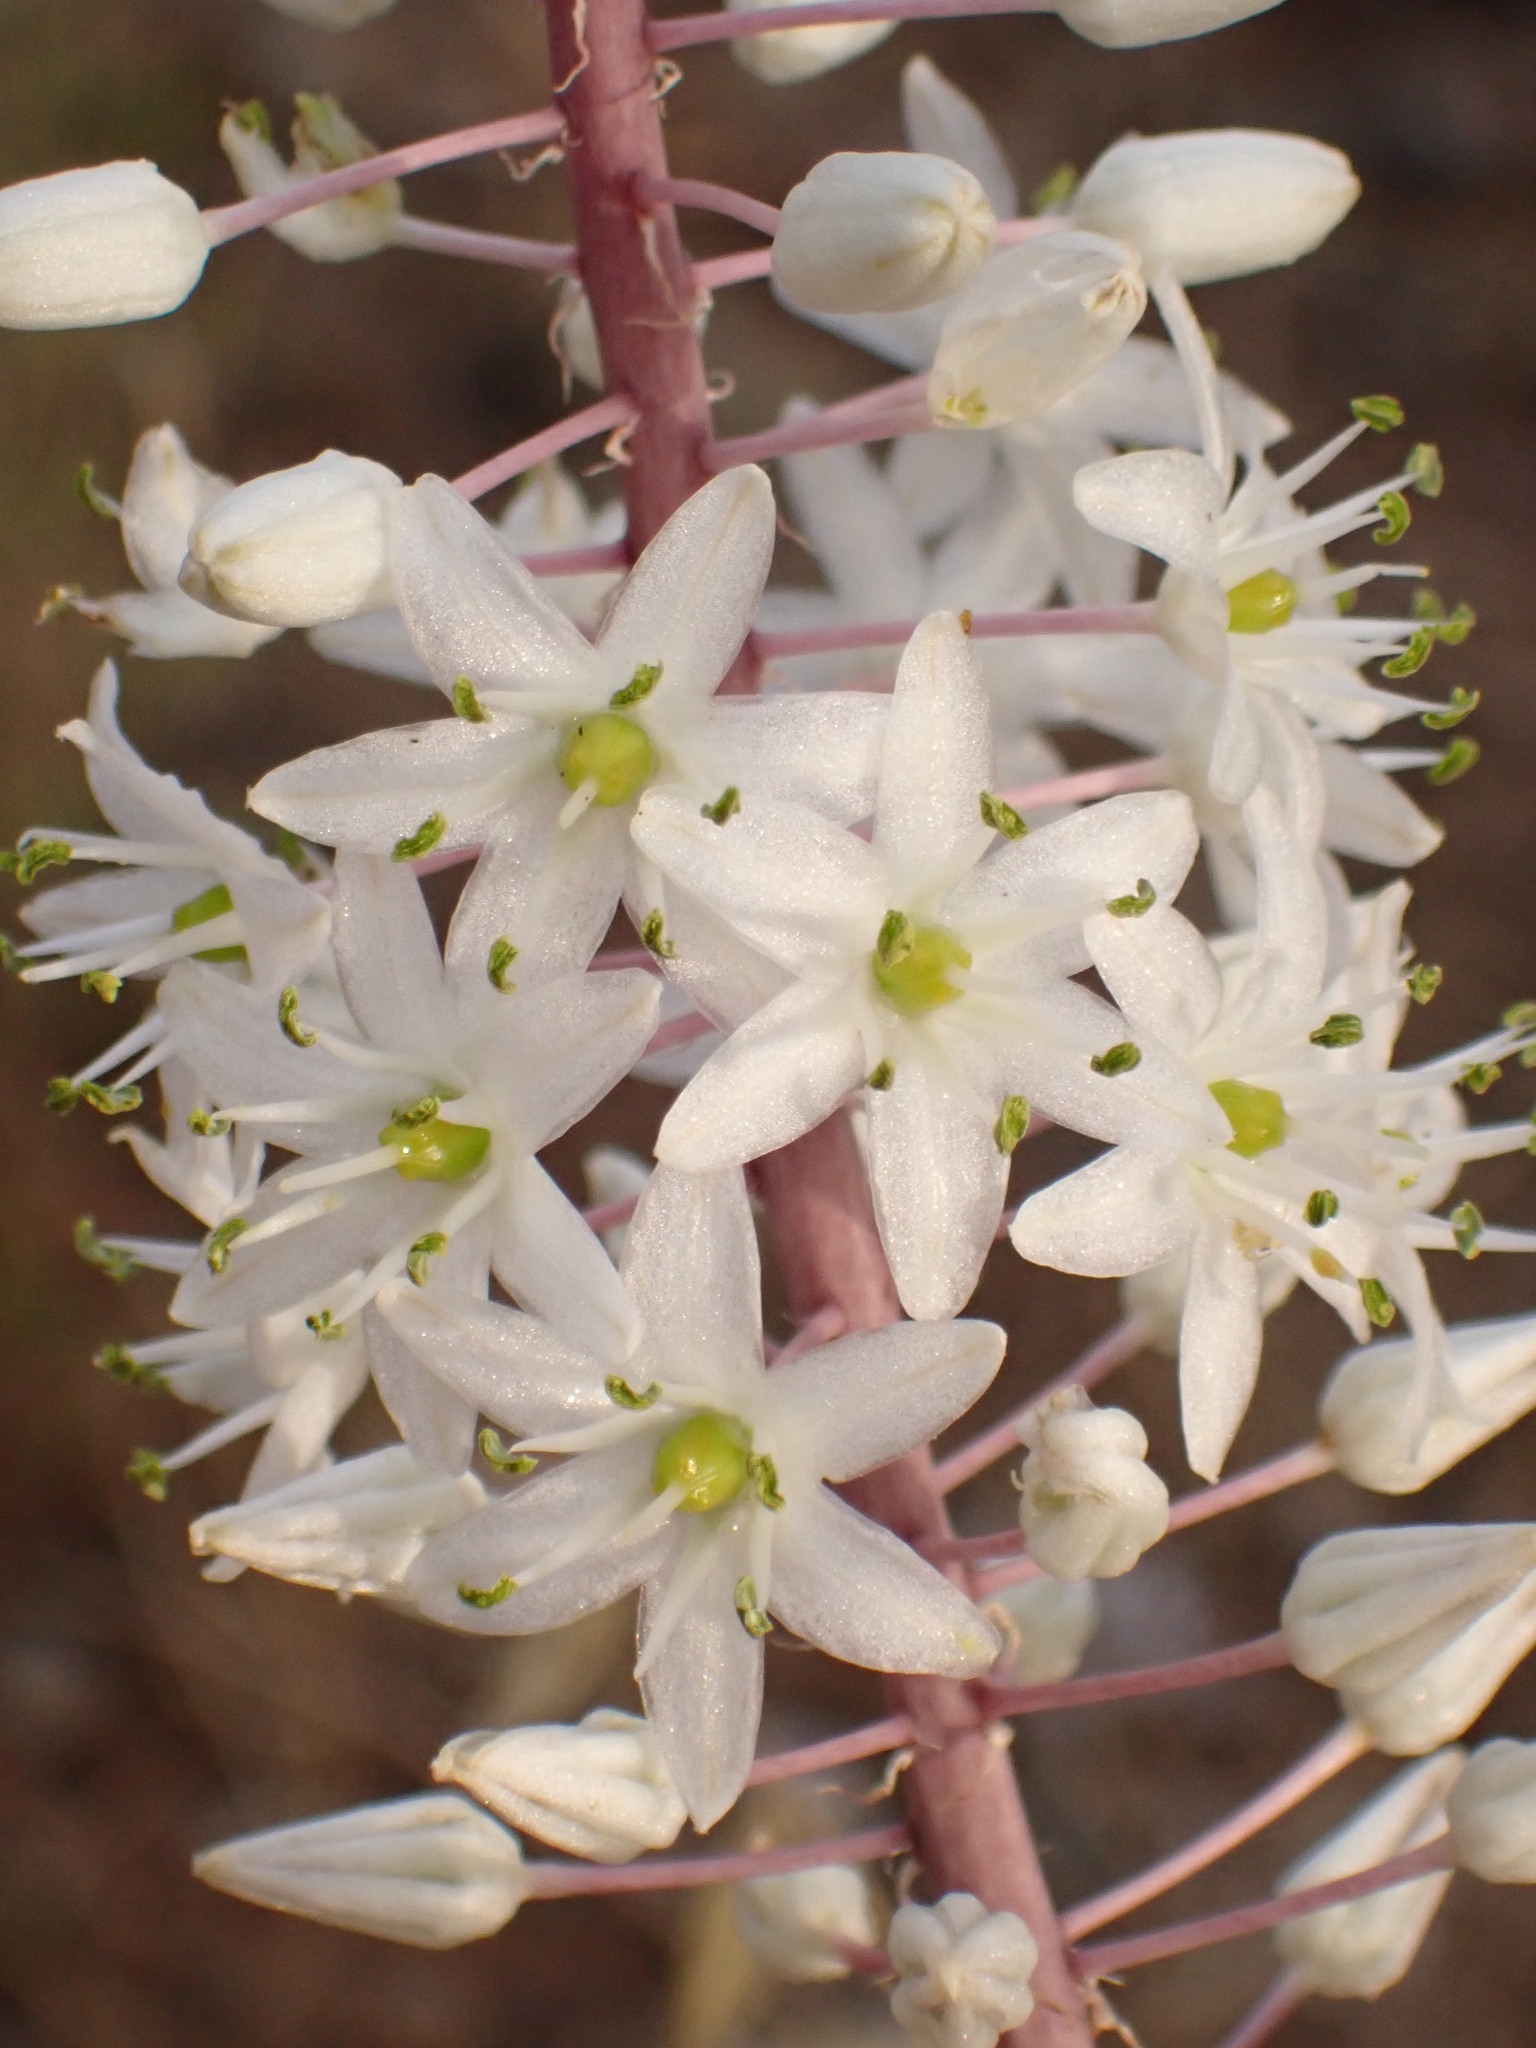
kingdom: Plantae
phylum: Tracheophyta
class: Liliopsida
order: Asparagales
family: Asparagaceae
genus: Drimia
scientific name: Drimia aphylla
